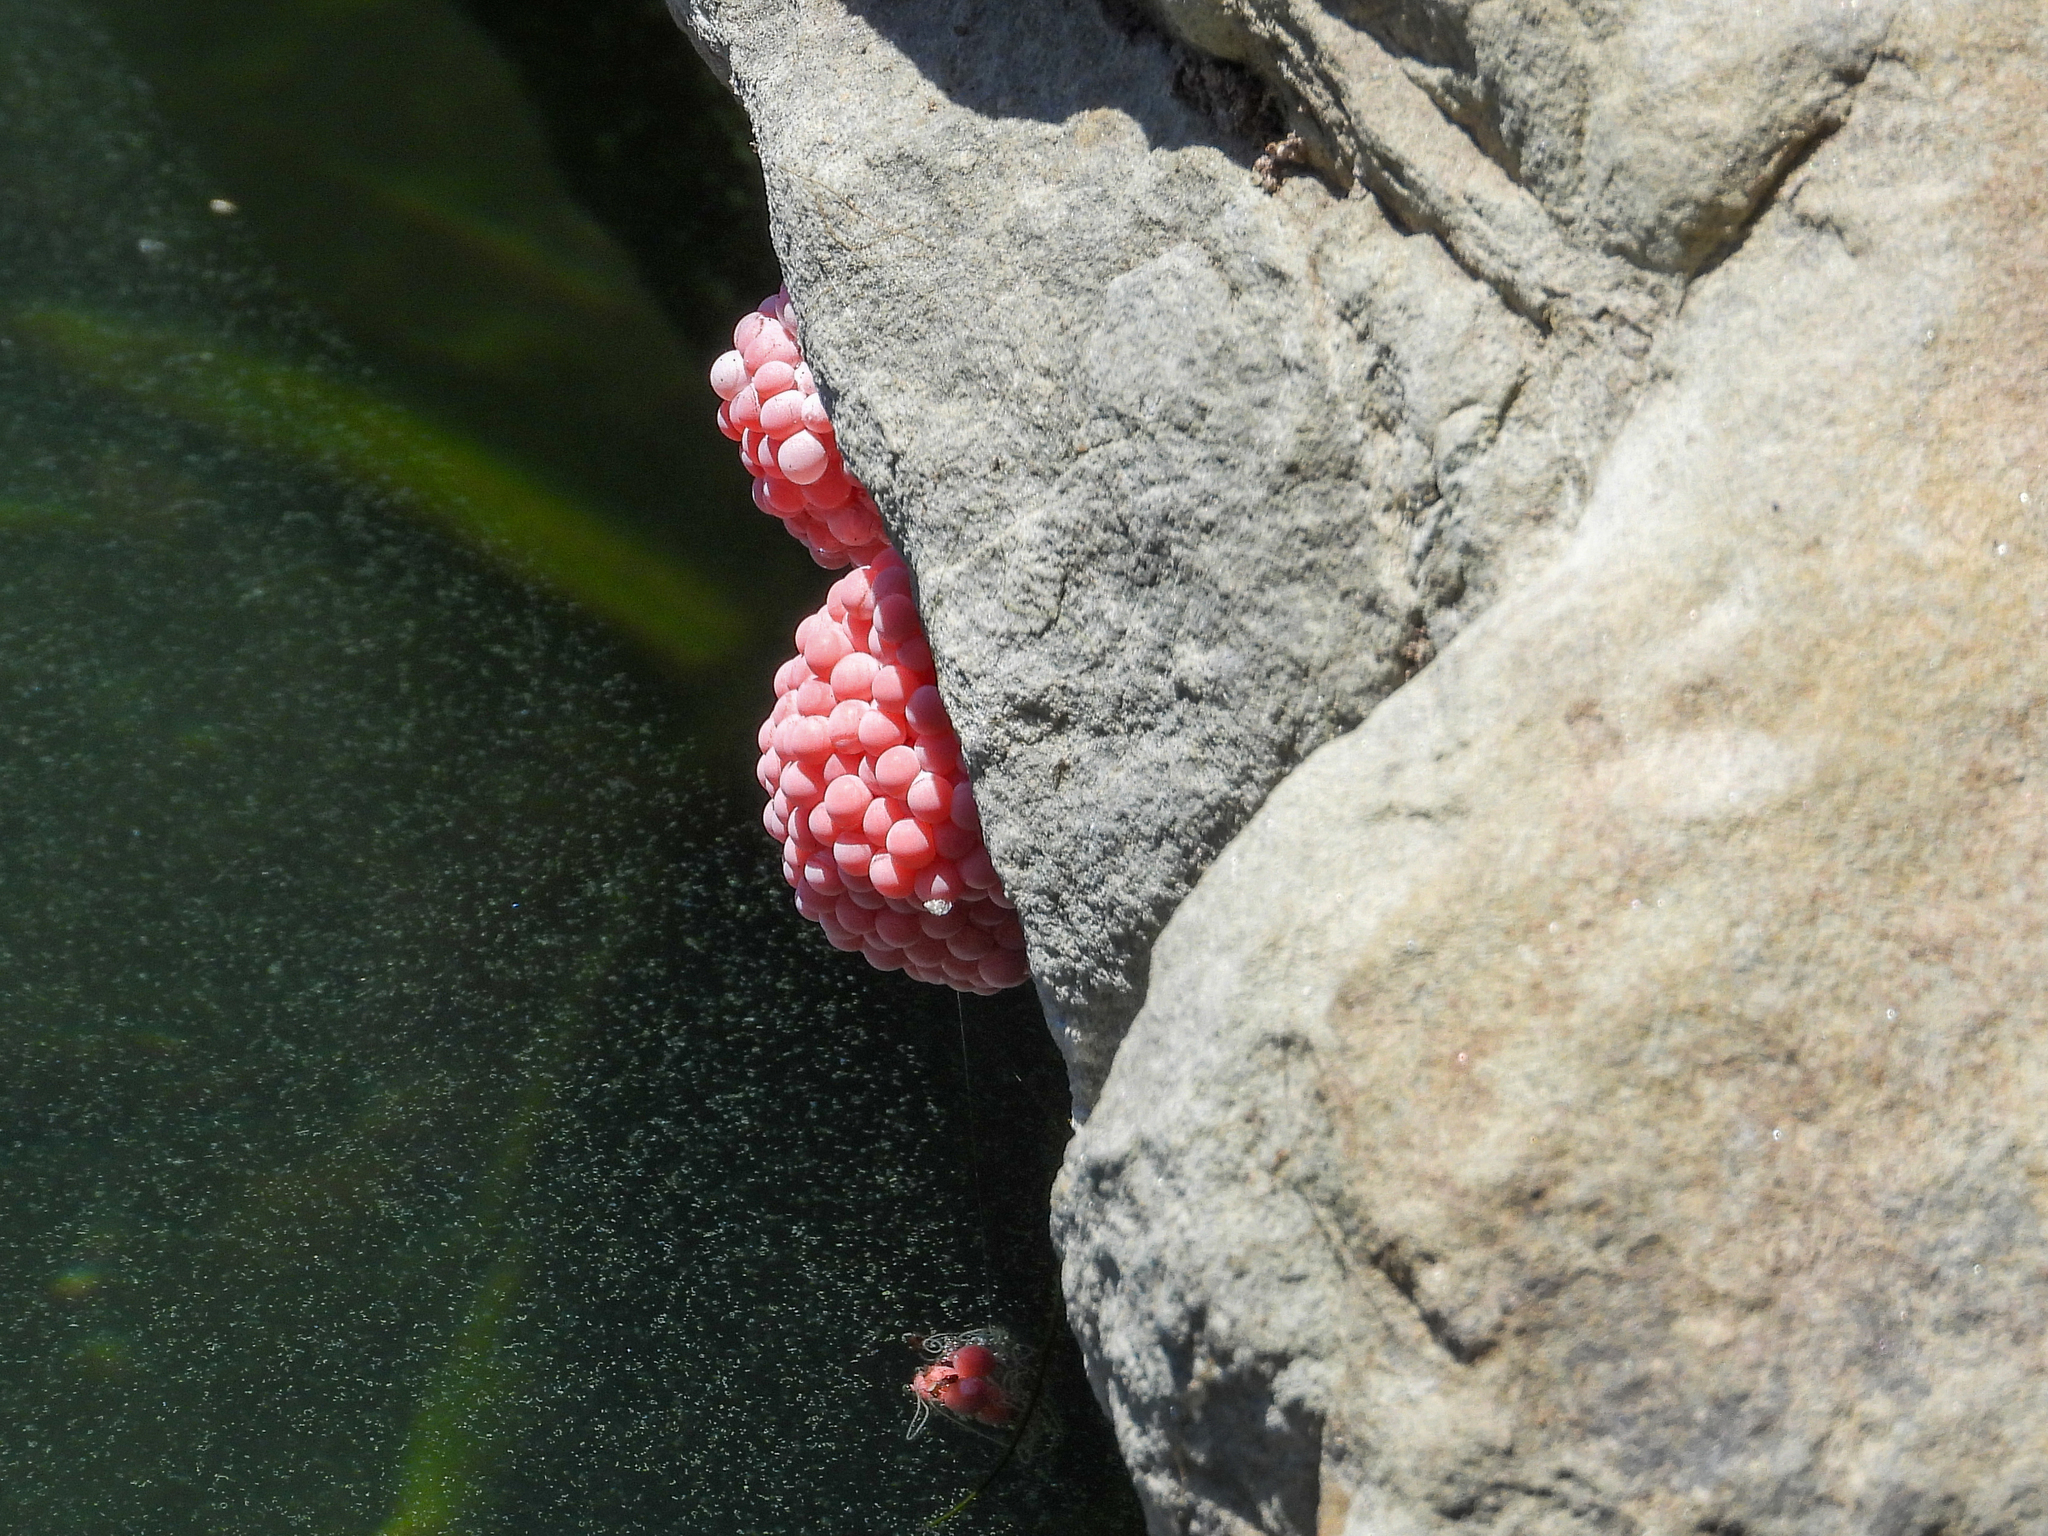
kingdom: Animalia
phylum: Mollusca
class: Gastropoda
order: Architaenioglossa
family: Ampullariidae
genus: Pomacea
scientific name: Pomacea canaliculata
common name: Channeled applesnail
